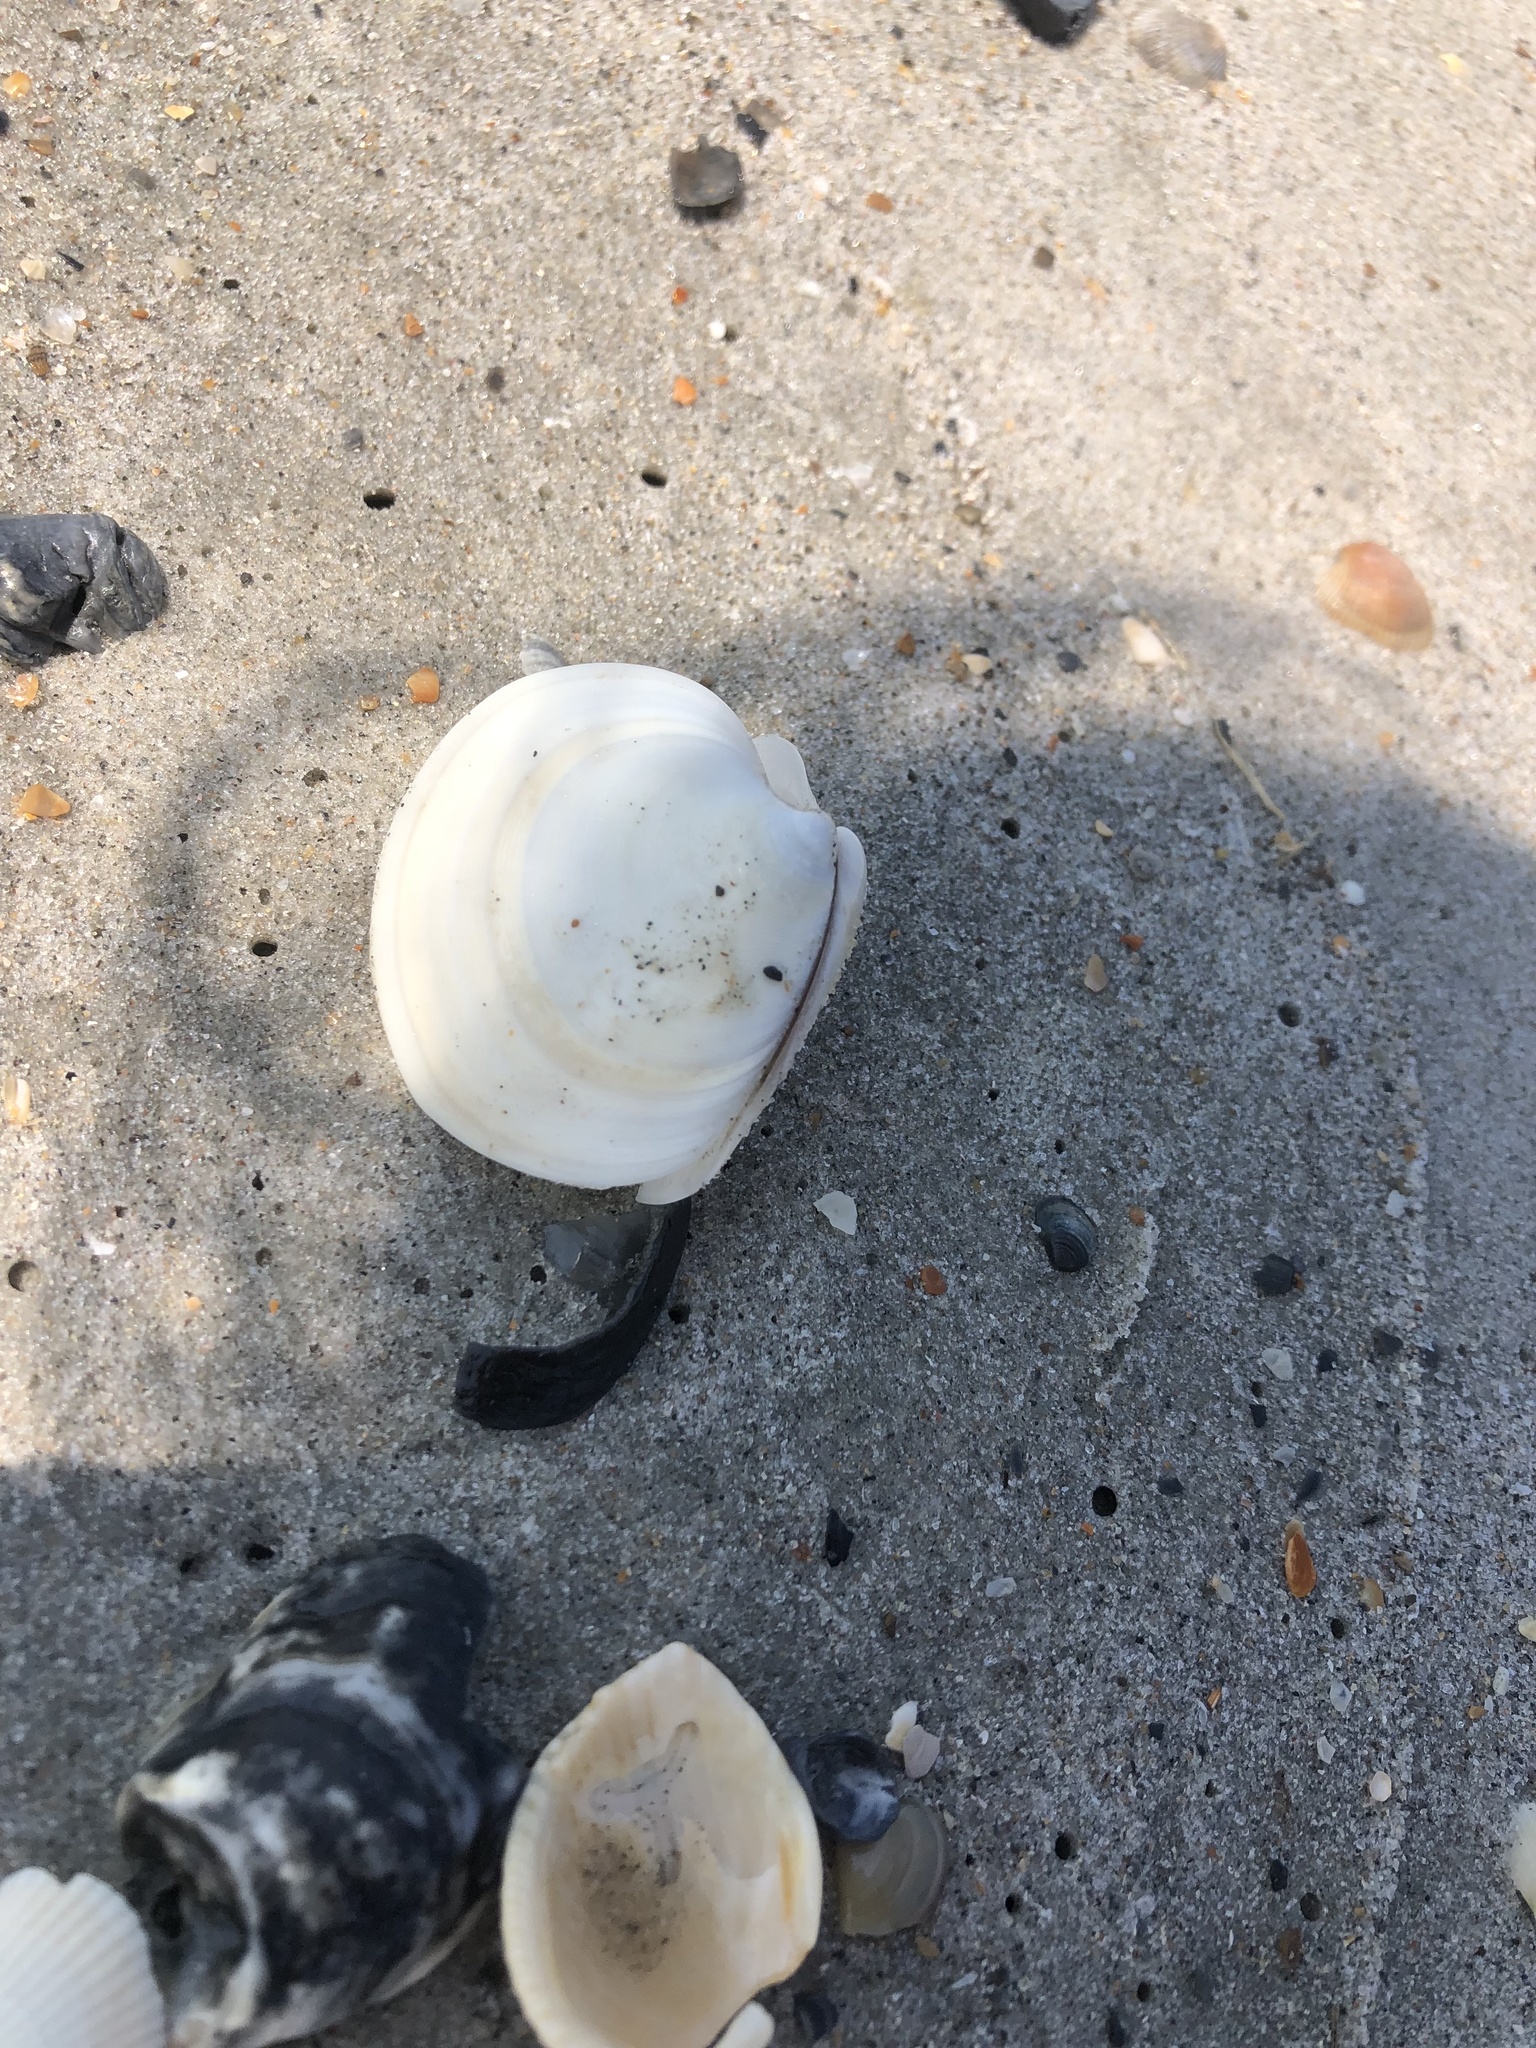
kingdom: Animalia
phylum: Mollusca
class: Bivalvia
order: Venerida
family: Veneridae
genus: Dosinia
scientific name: Dosinia discus
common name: Disk dosinia
